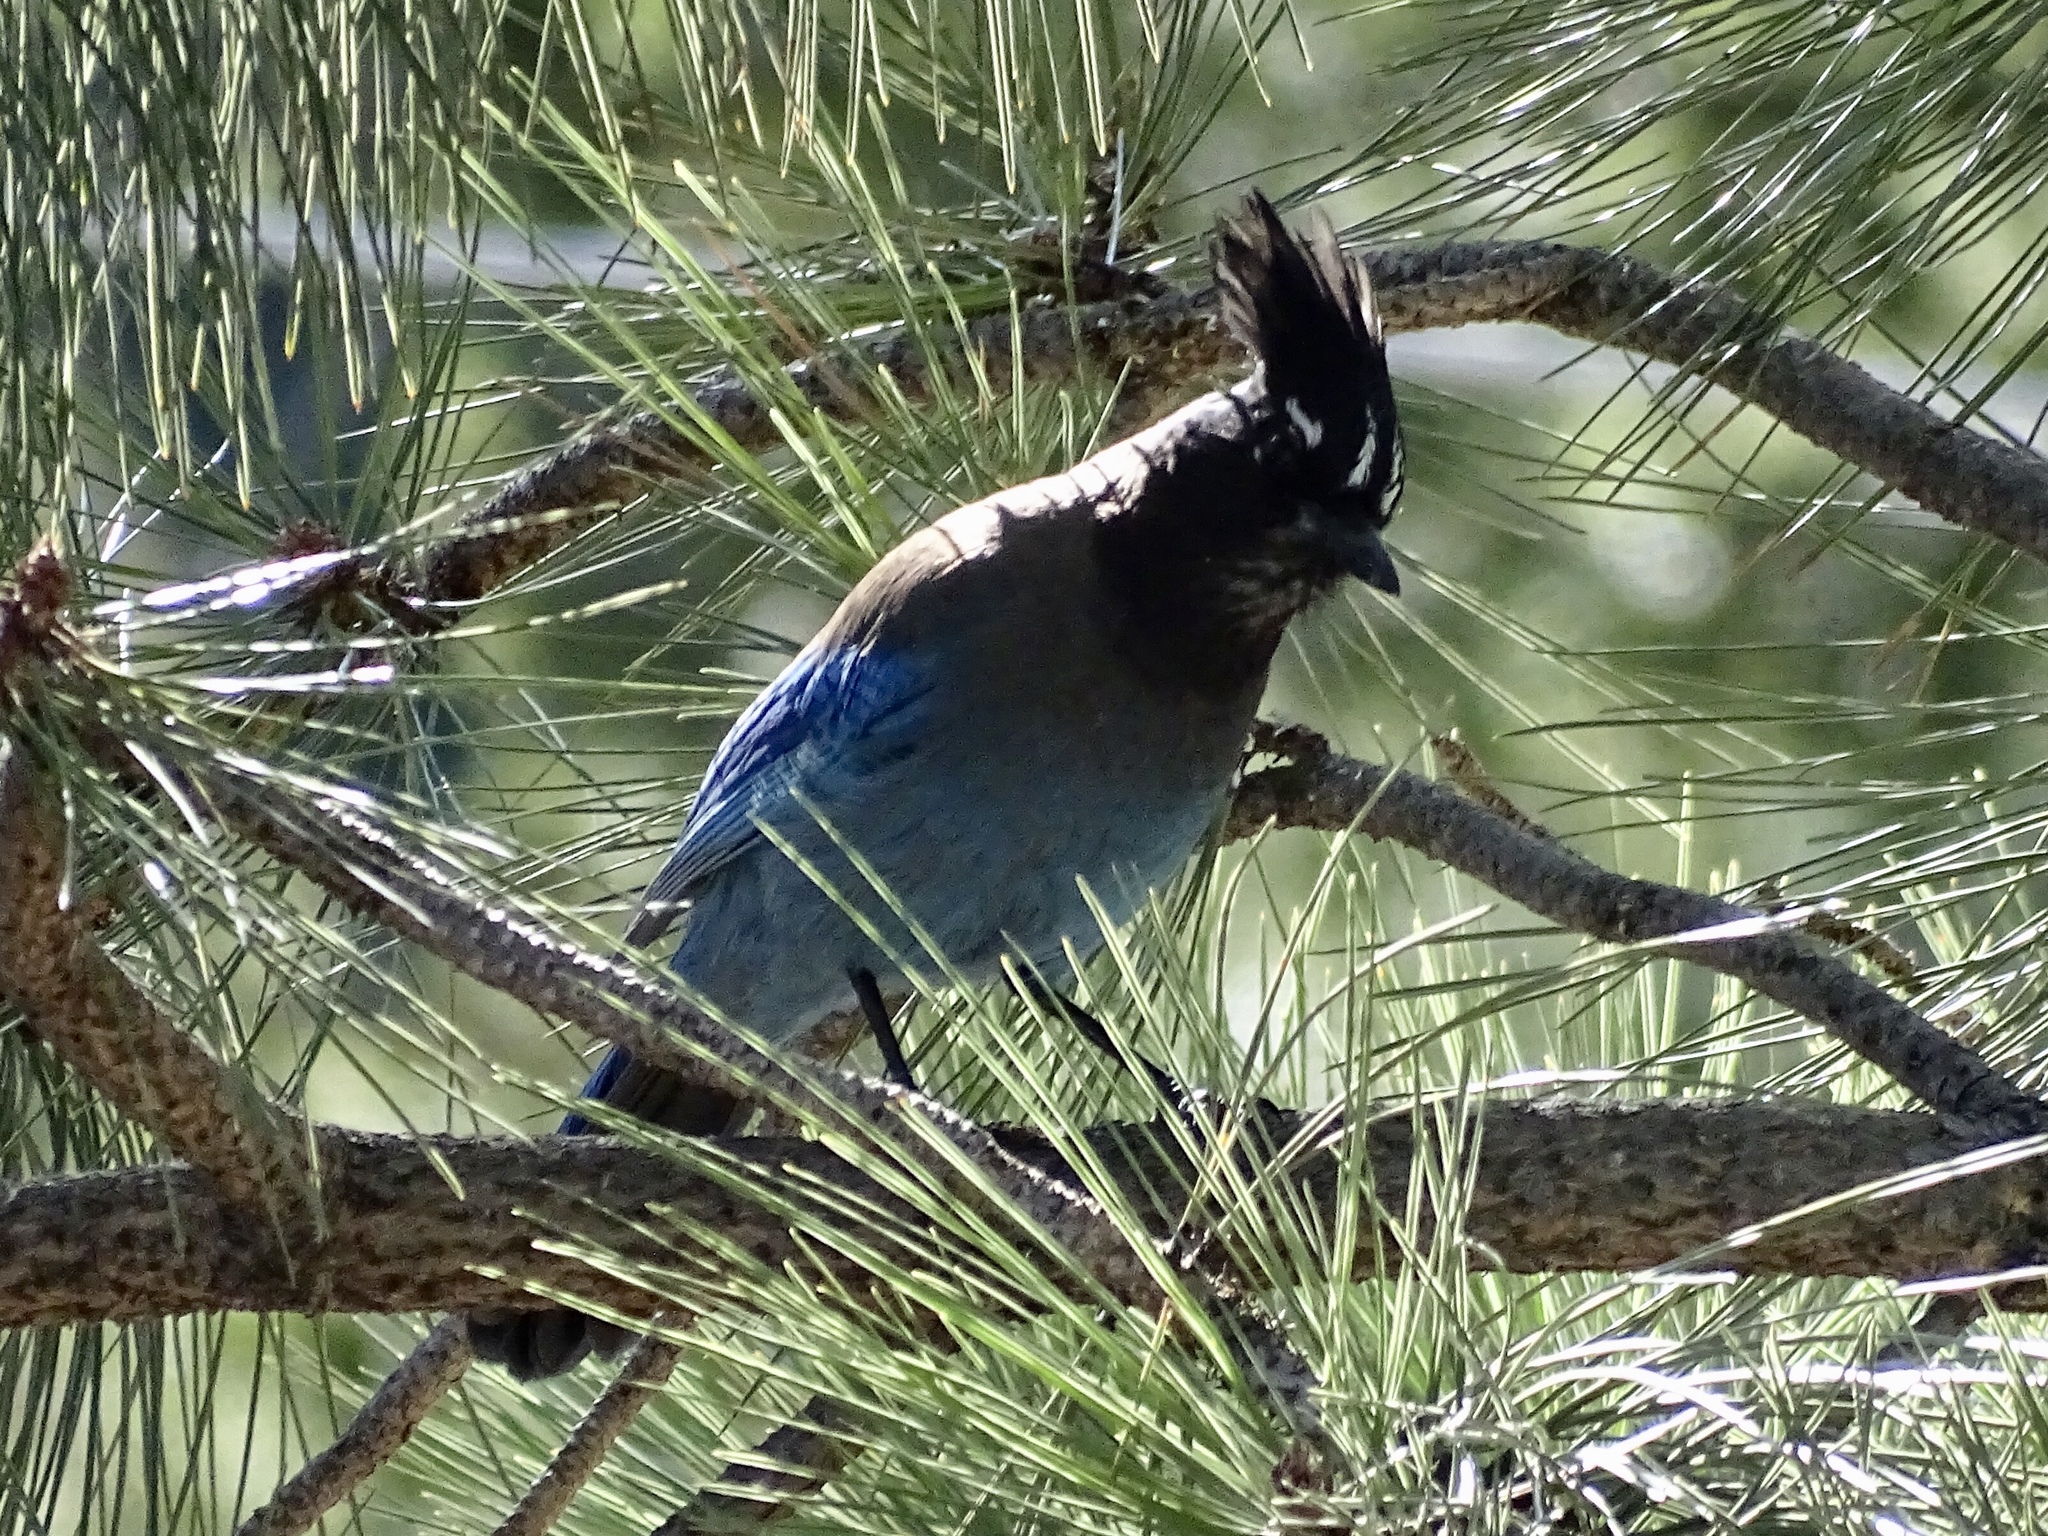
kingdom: Animalia
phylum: Chordata
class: Aves
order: Passeriformes
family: Corvidae
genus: Cyanocitta
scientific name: Cyanocitta stelleri
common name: Steller's jay
